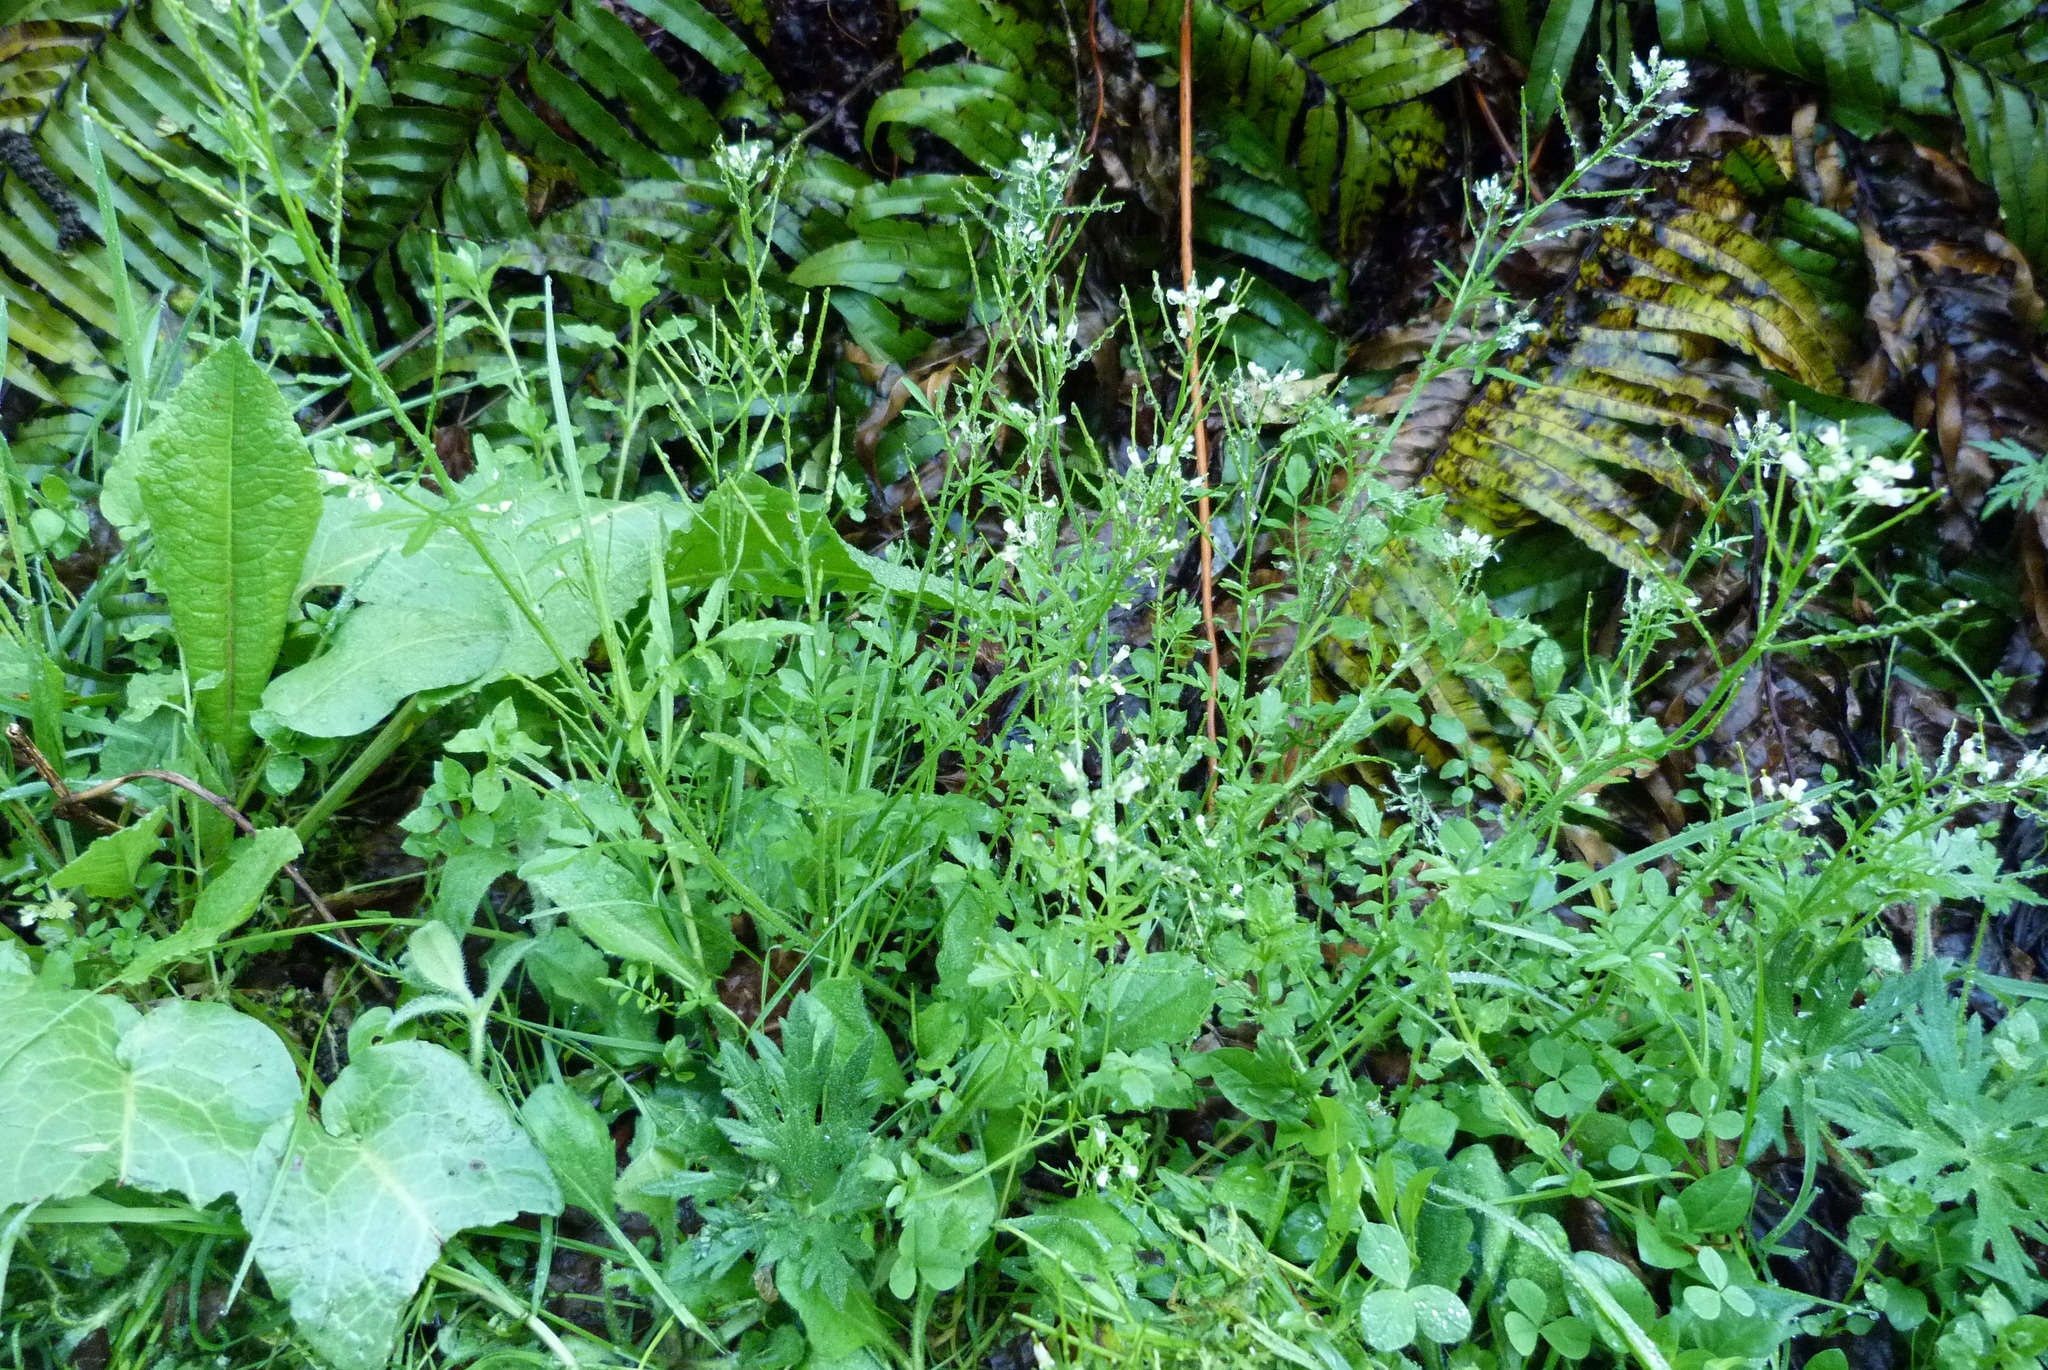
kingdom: Plantae
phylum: Tracheophyta
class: Magnoliopsida
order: Brassicales
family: Brassicaceae
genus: Cardamine
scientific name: Cardamine hirsuta
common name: Hairy bittercress
